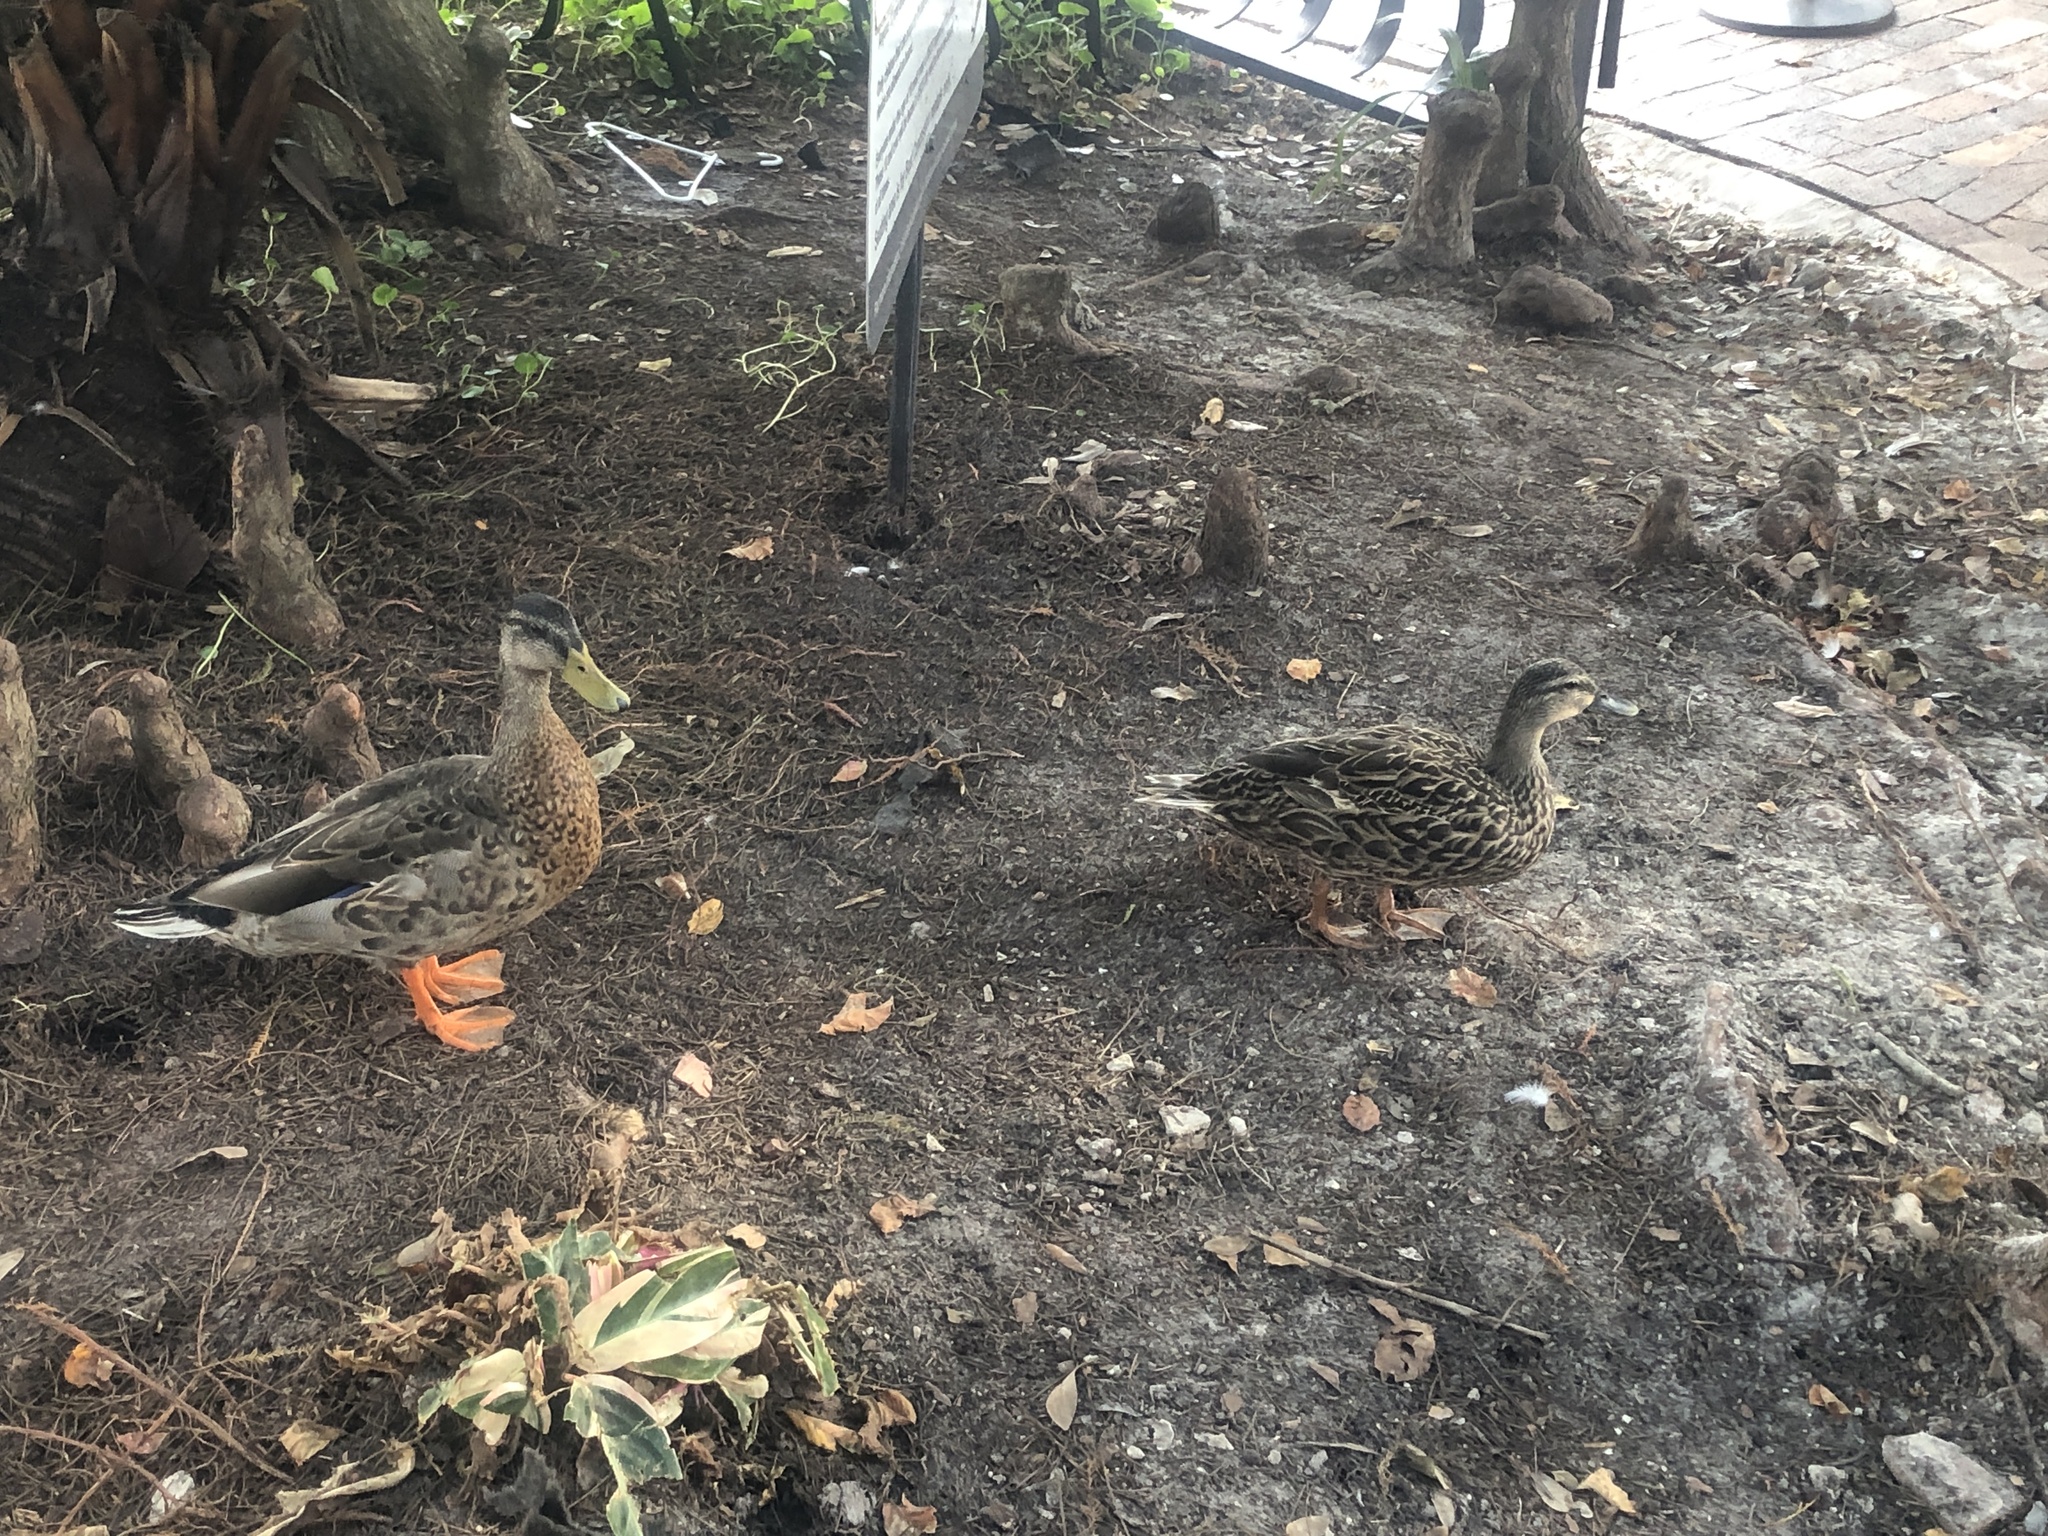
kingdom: Animalia
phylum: Chordata
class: Aves
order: Anseriformes
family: Anatidae
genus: Anas
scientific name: Anas platyrhynchos
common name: Mallard
